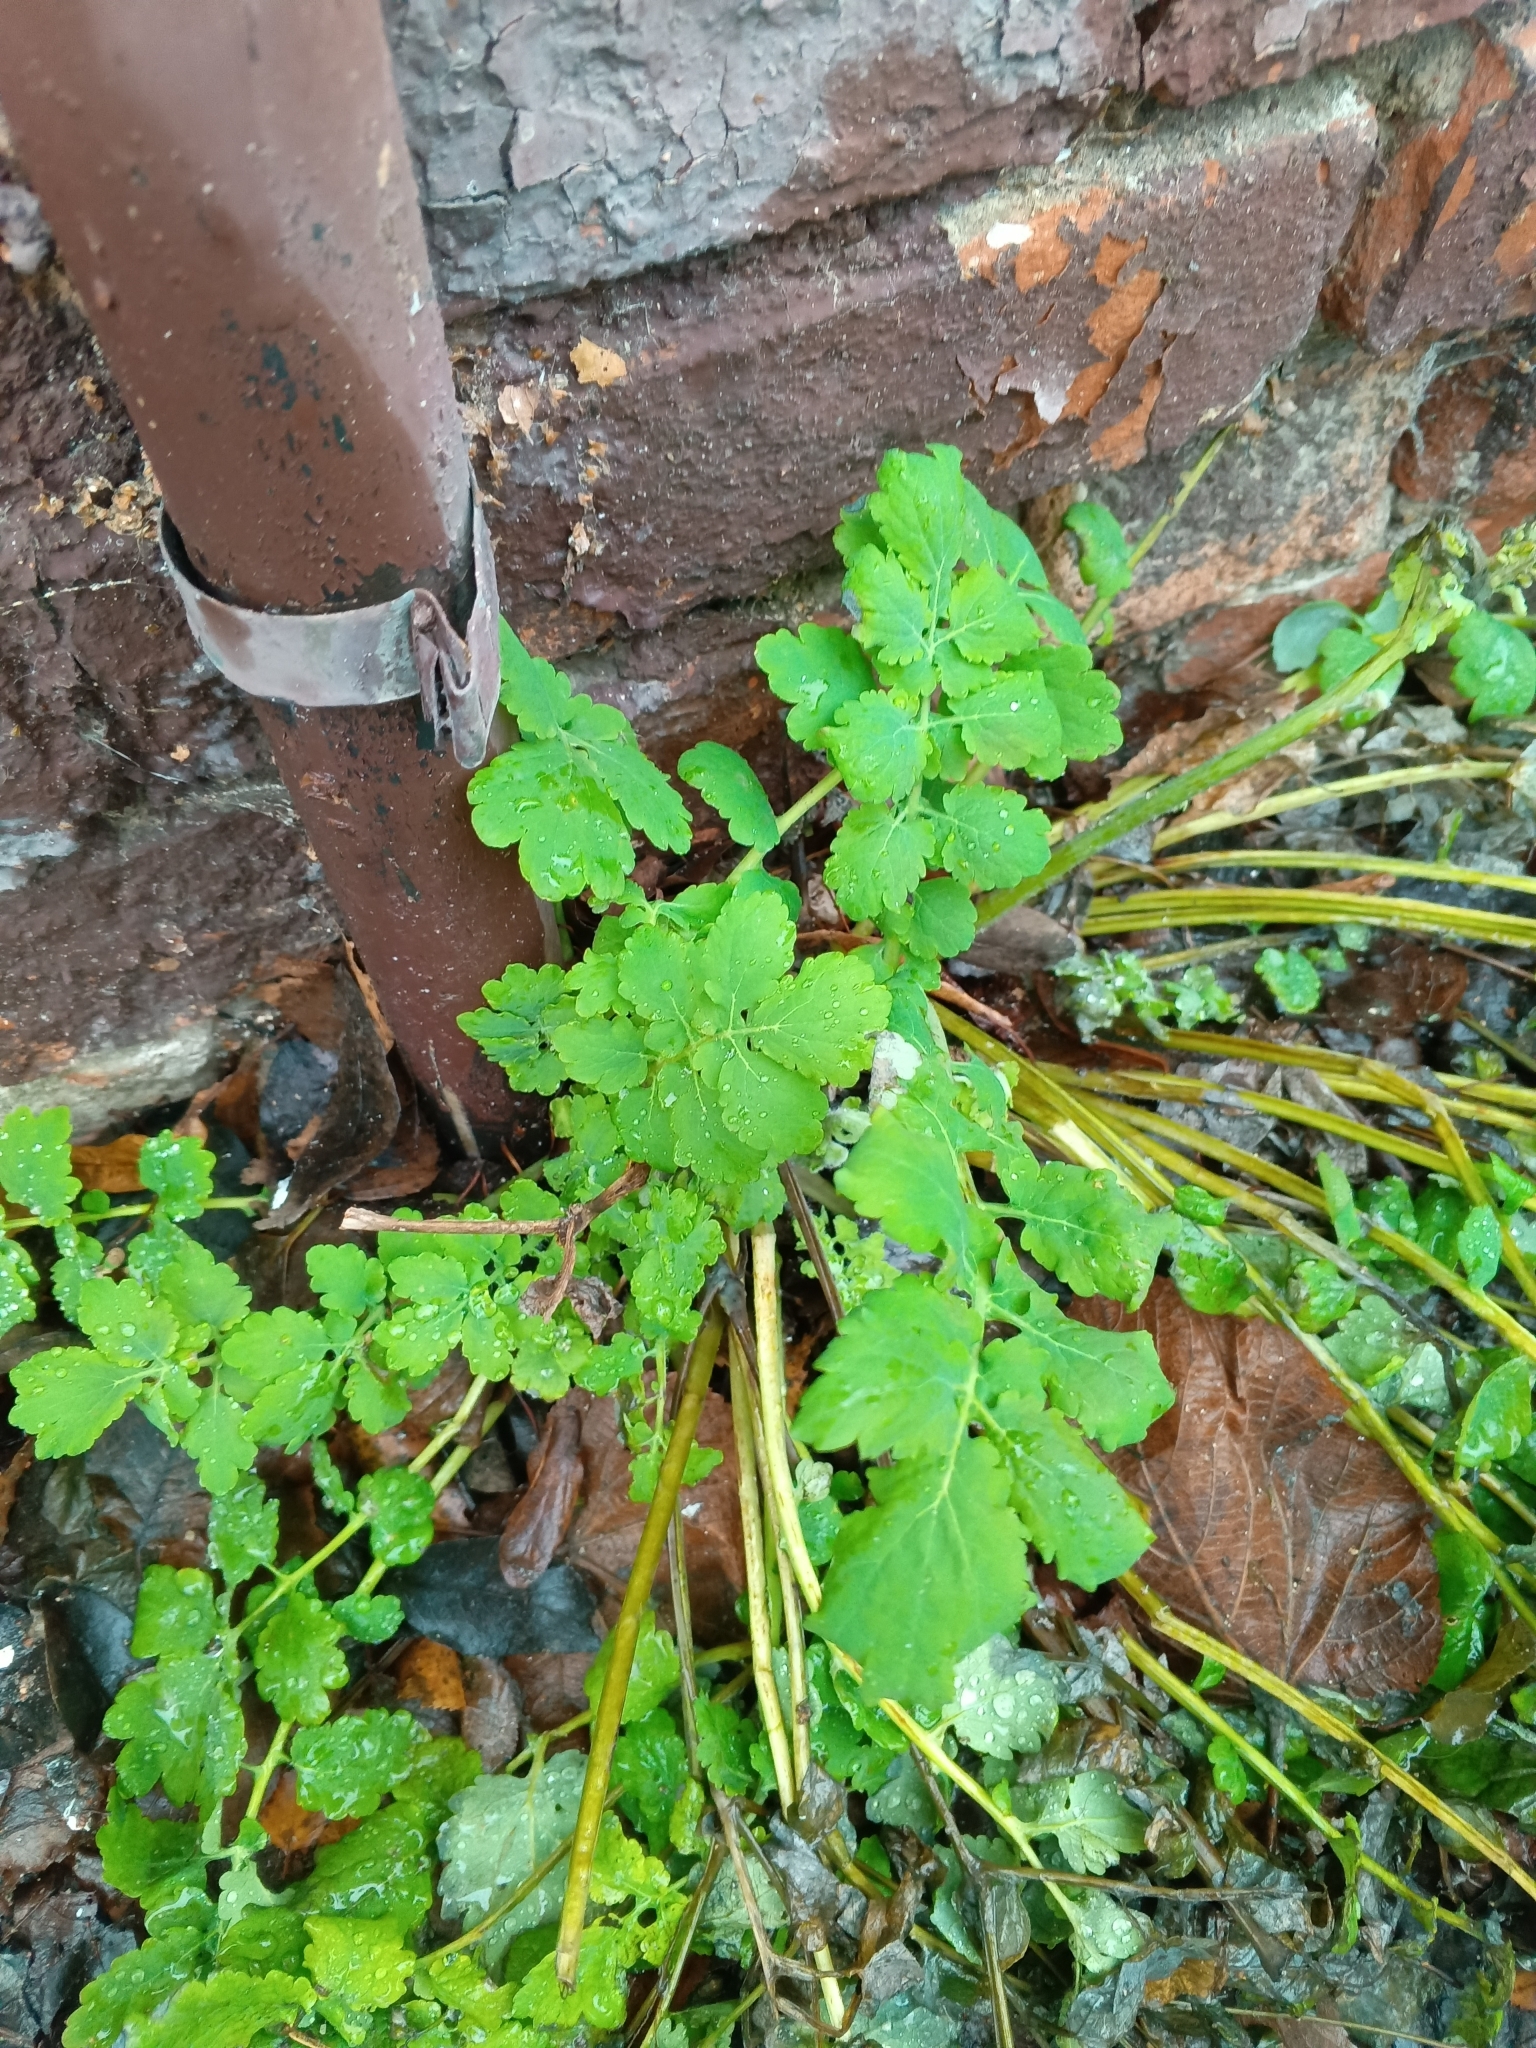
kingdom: Plantae
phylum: Tracheophyta
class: Magnoliopsida
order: Ranunculales
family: Papaveraceae
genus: Chelidonium
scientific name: Chelidonium majus
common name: Greater celandine
